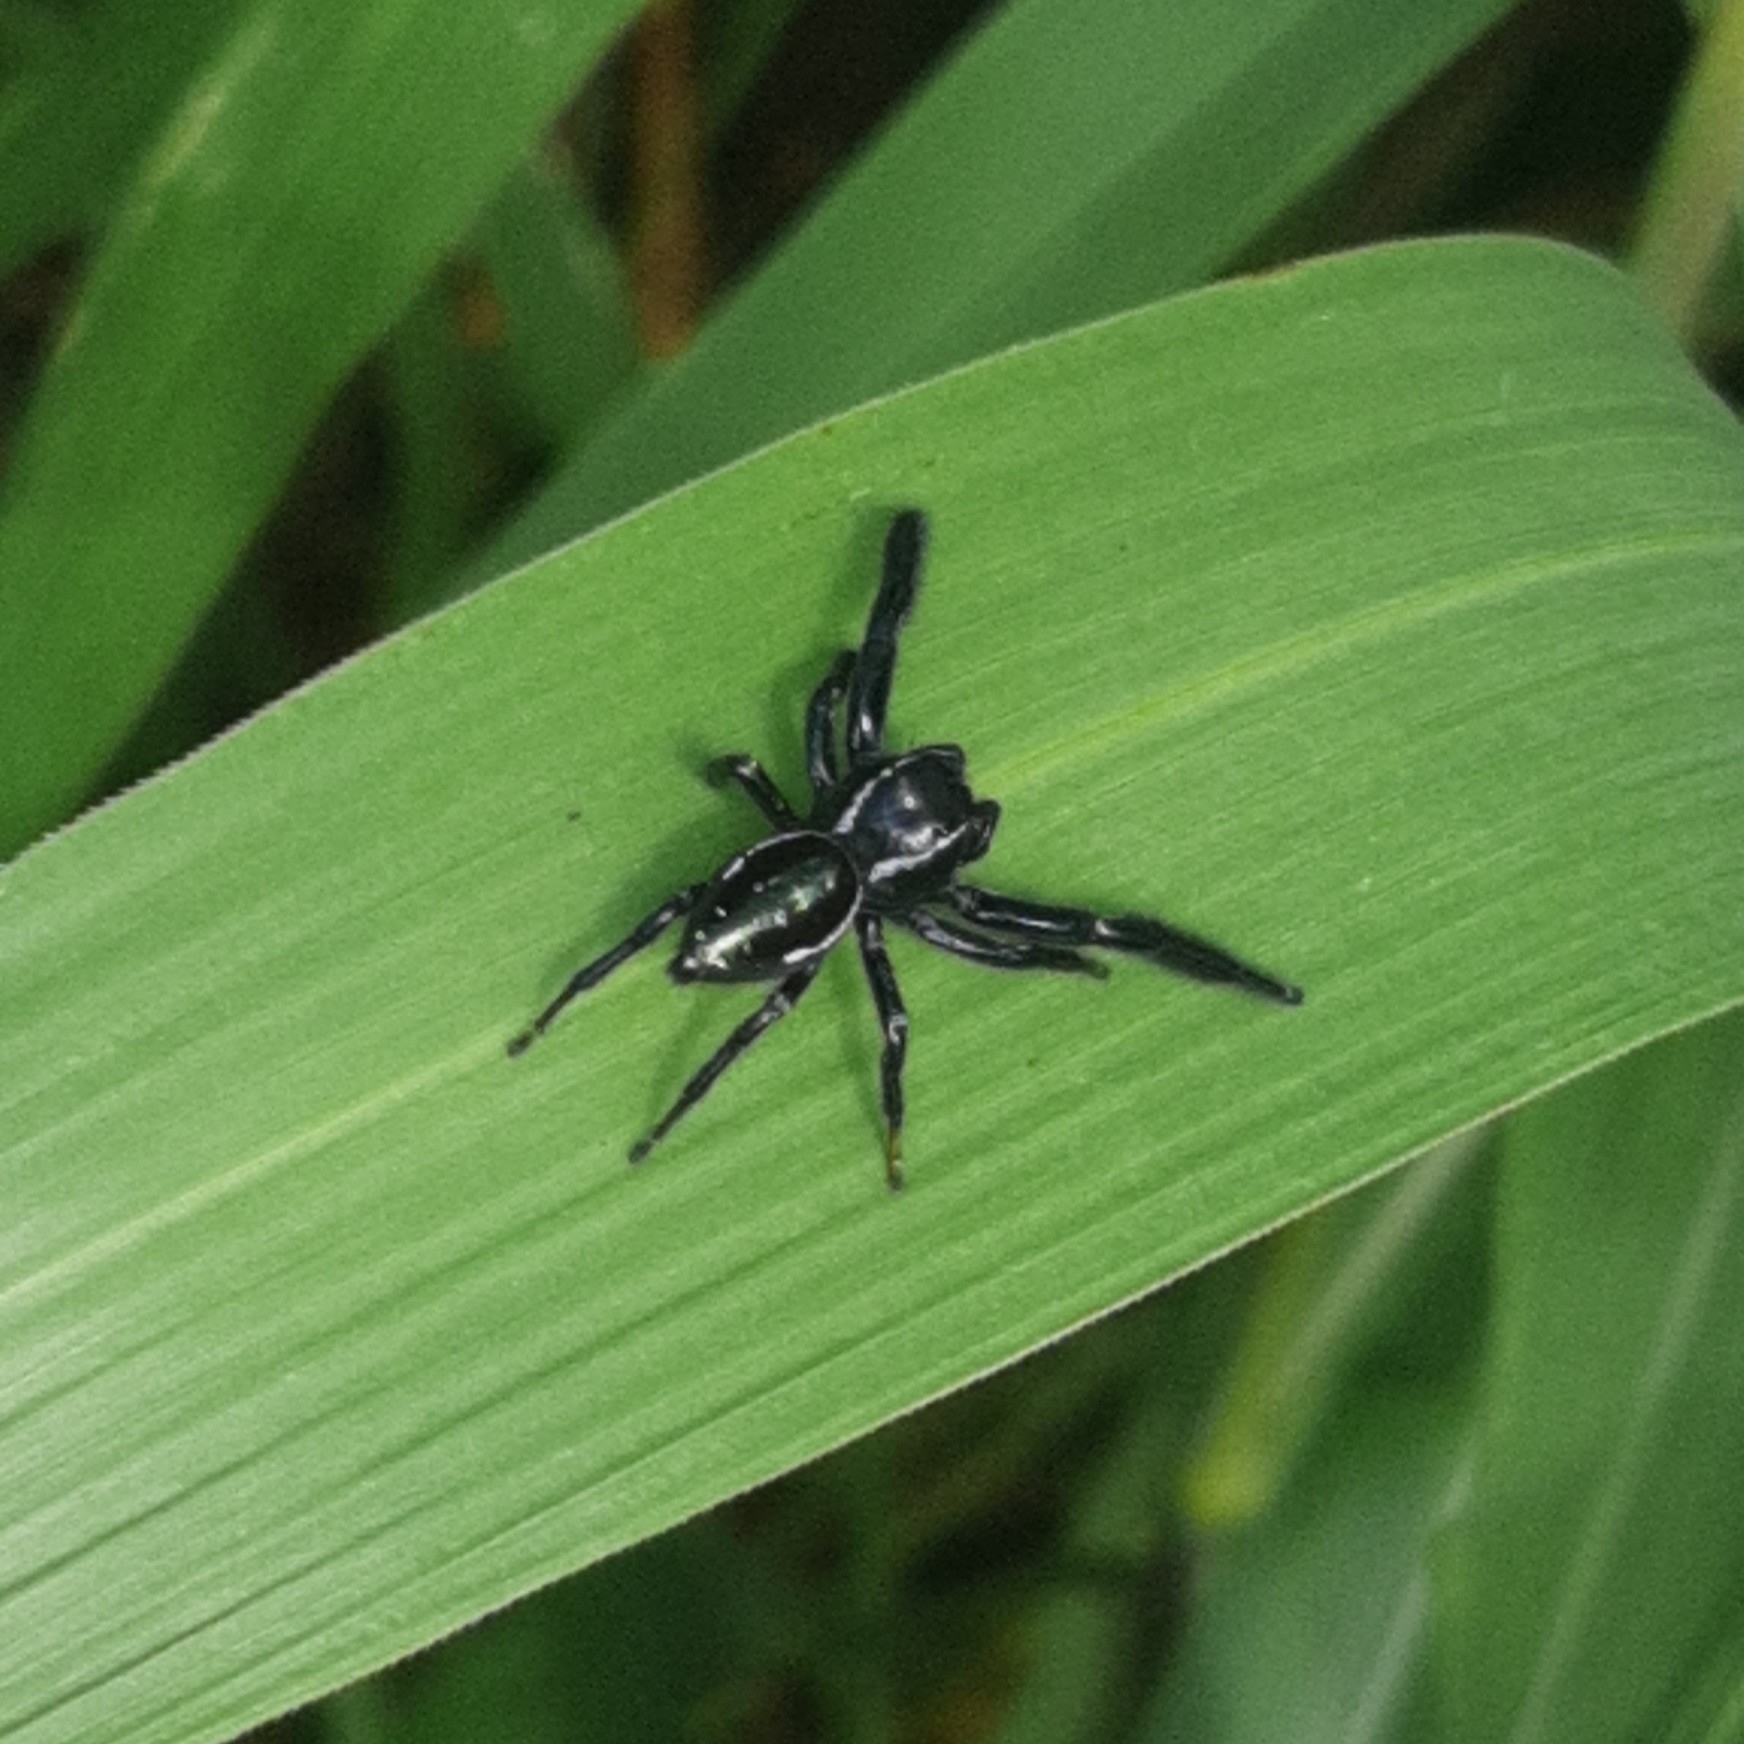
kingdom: Animalia
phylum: Arthropoda
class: Arachnida
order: Araneae
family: Salticidae
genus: Paraphidippus
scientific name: Paraphidippus aurantius
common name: Jumping spiders
